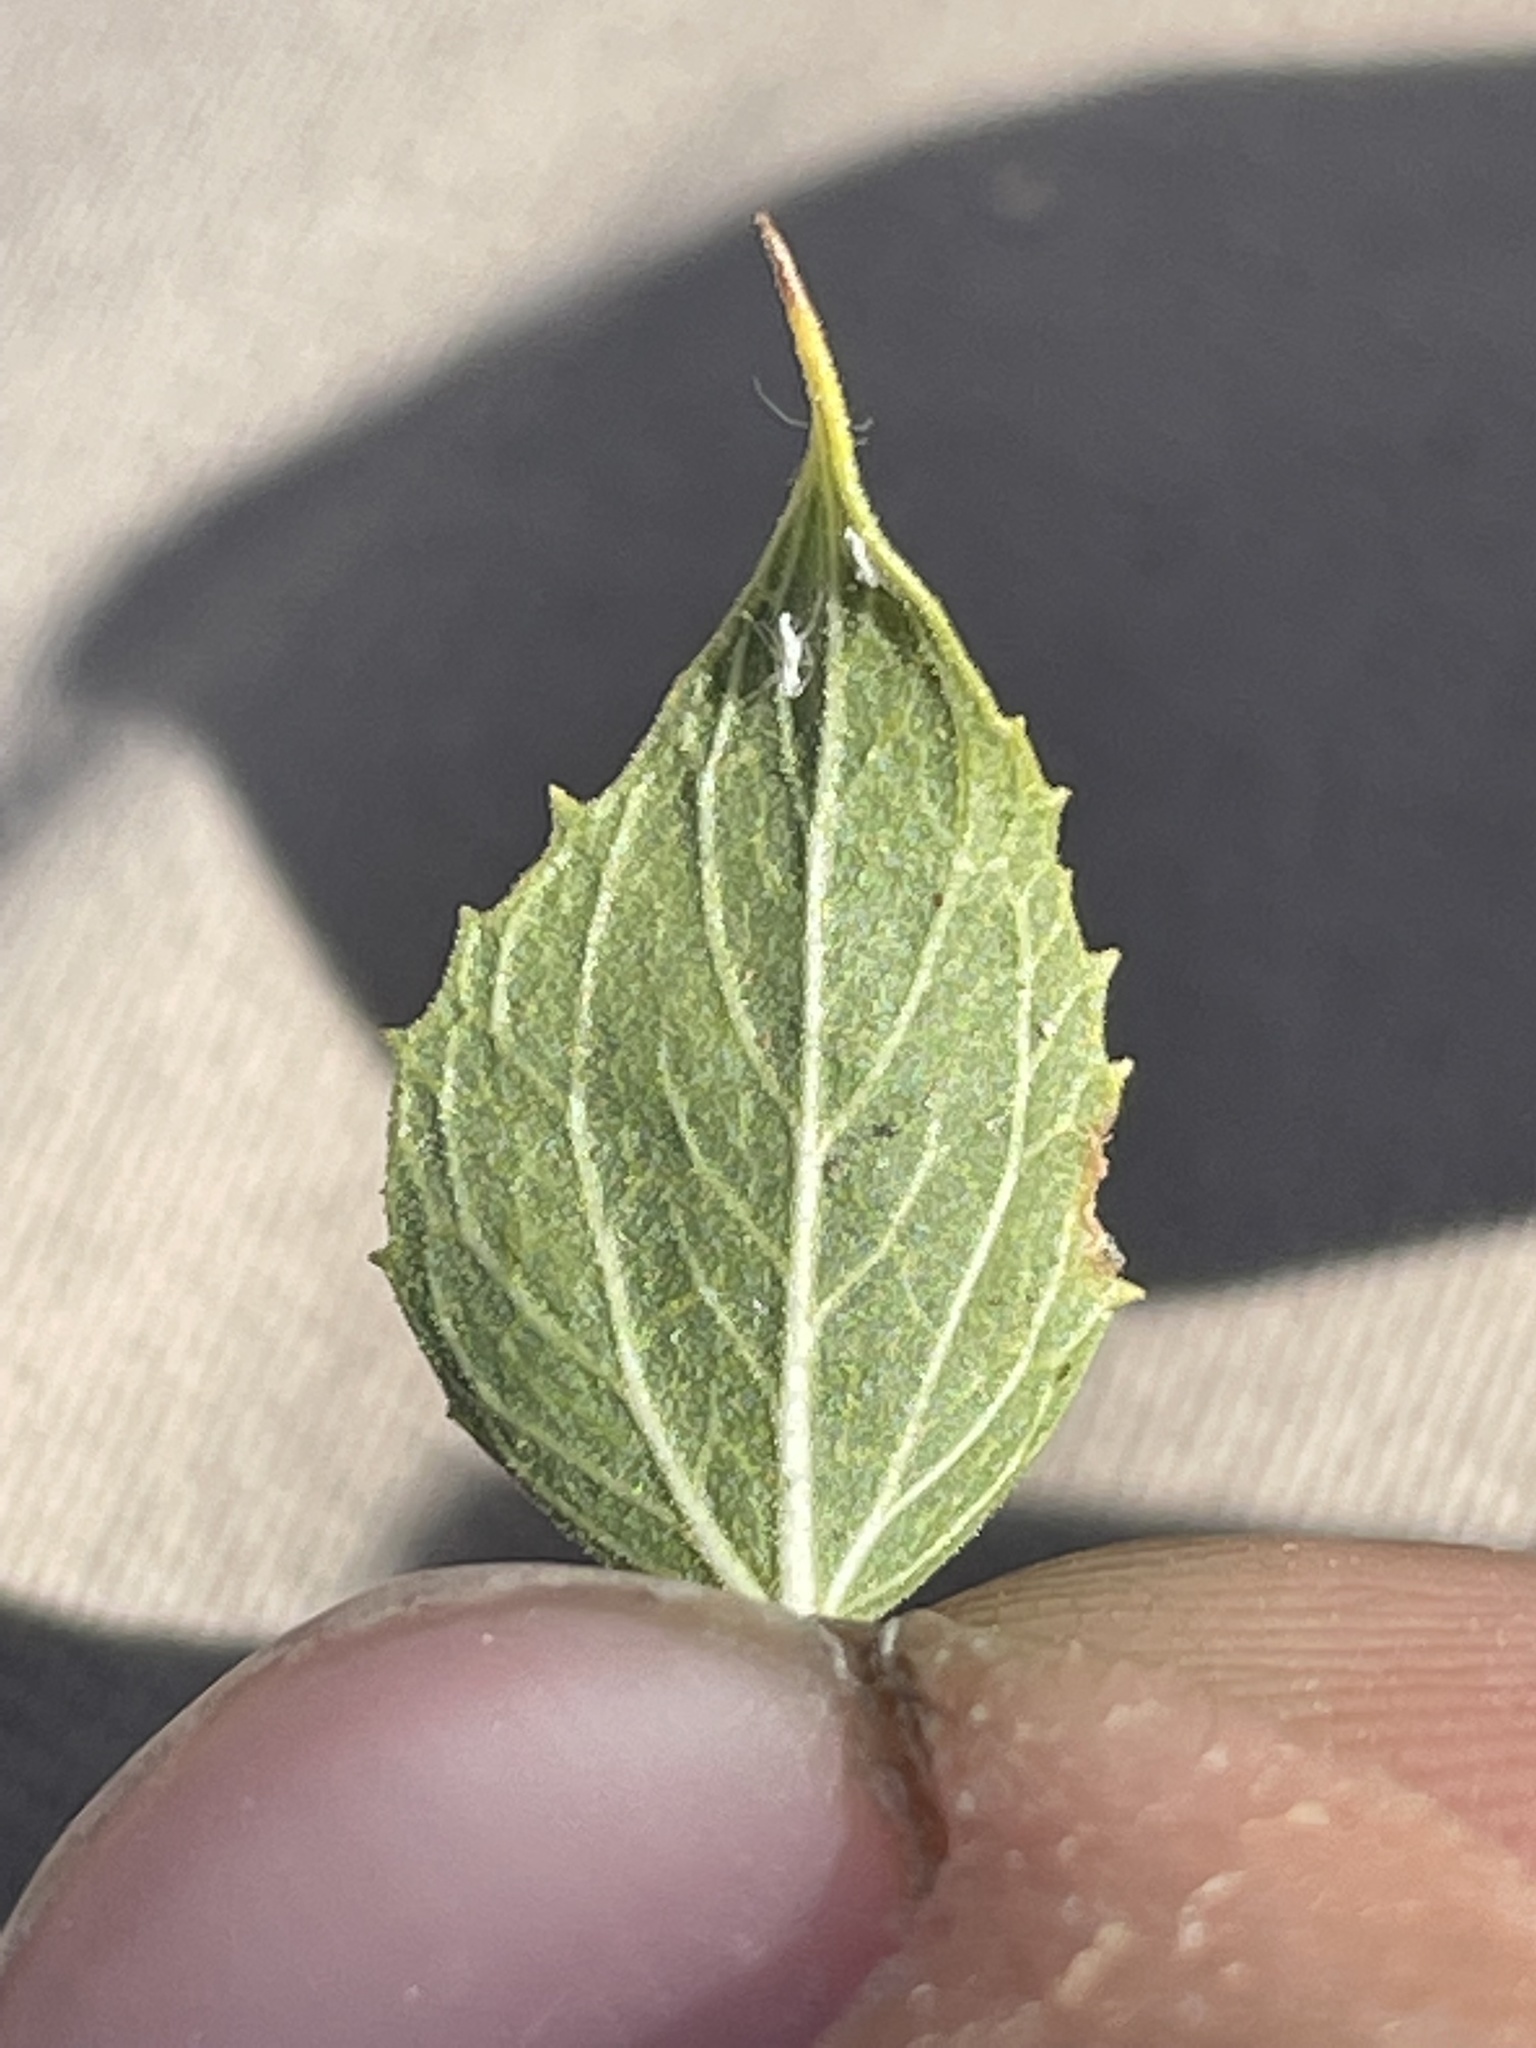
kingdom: Plantae
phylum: Tracheophyta
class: Magnoliopsida
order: Asterales
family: Asteraceae
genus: Brickellia
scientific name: Brickellia atractyloides
